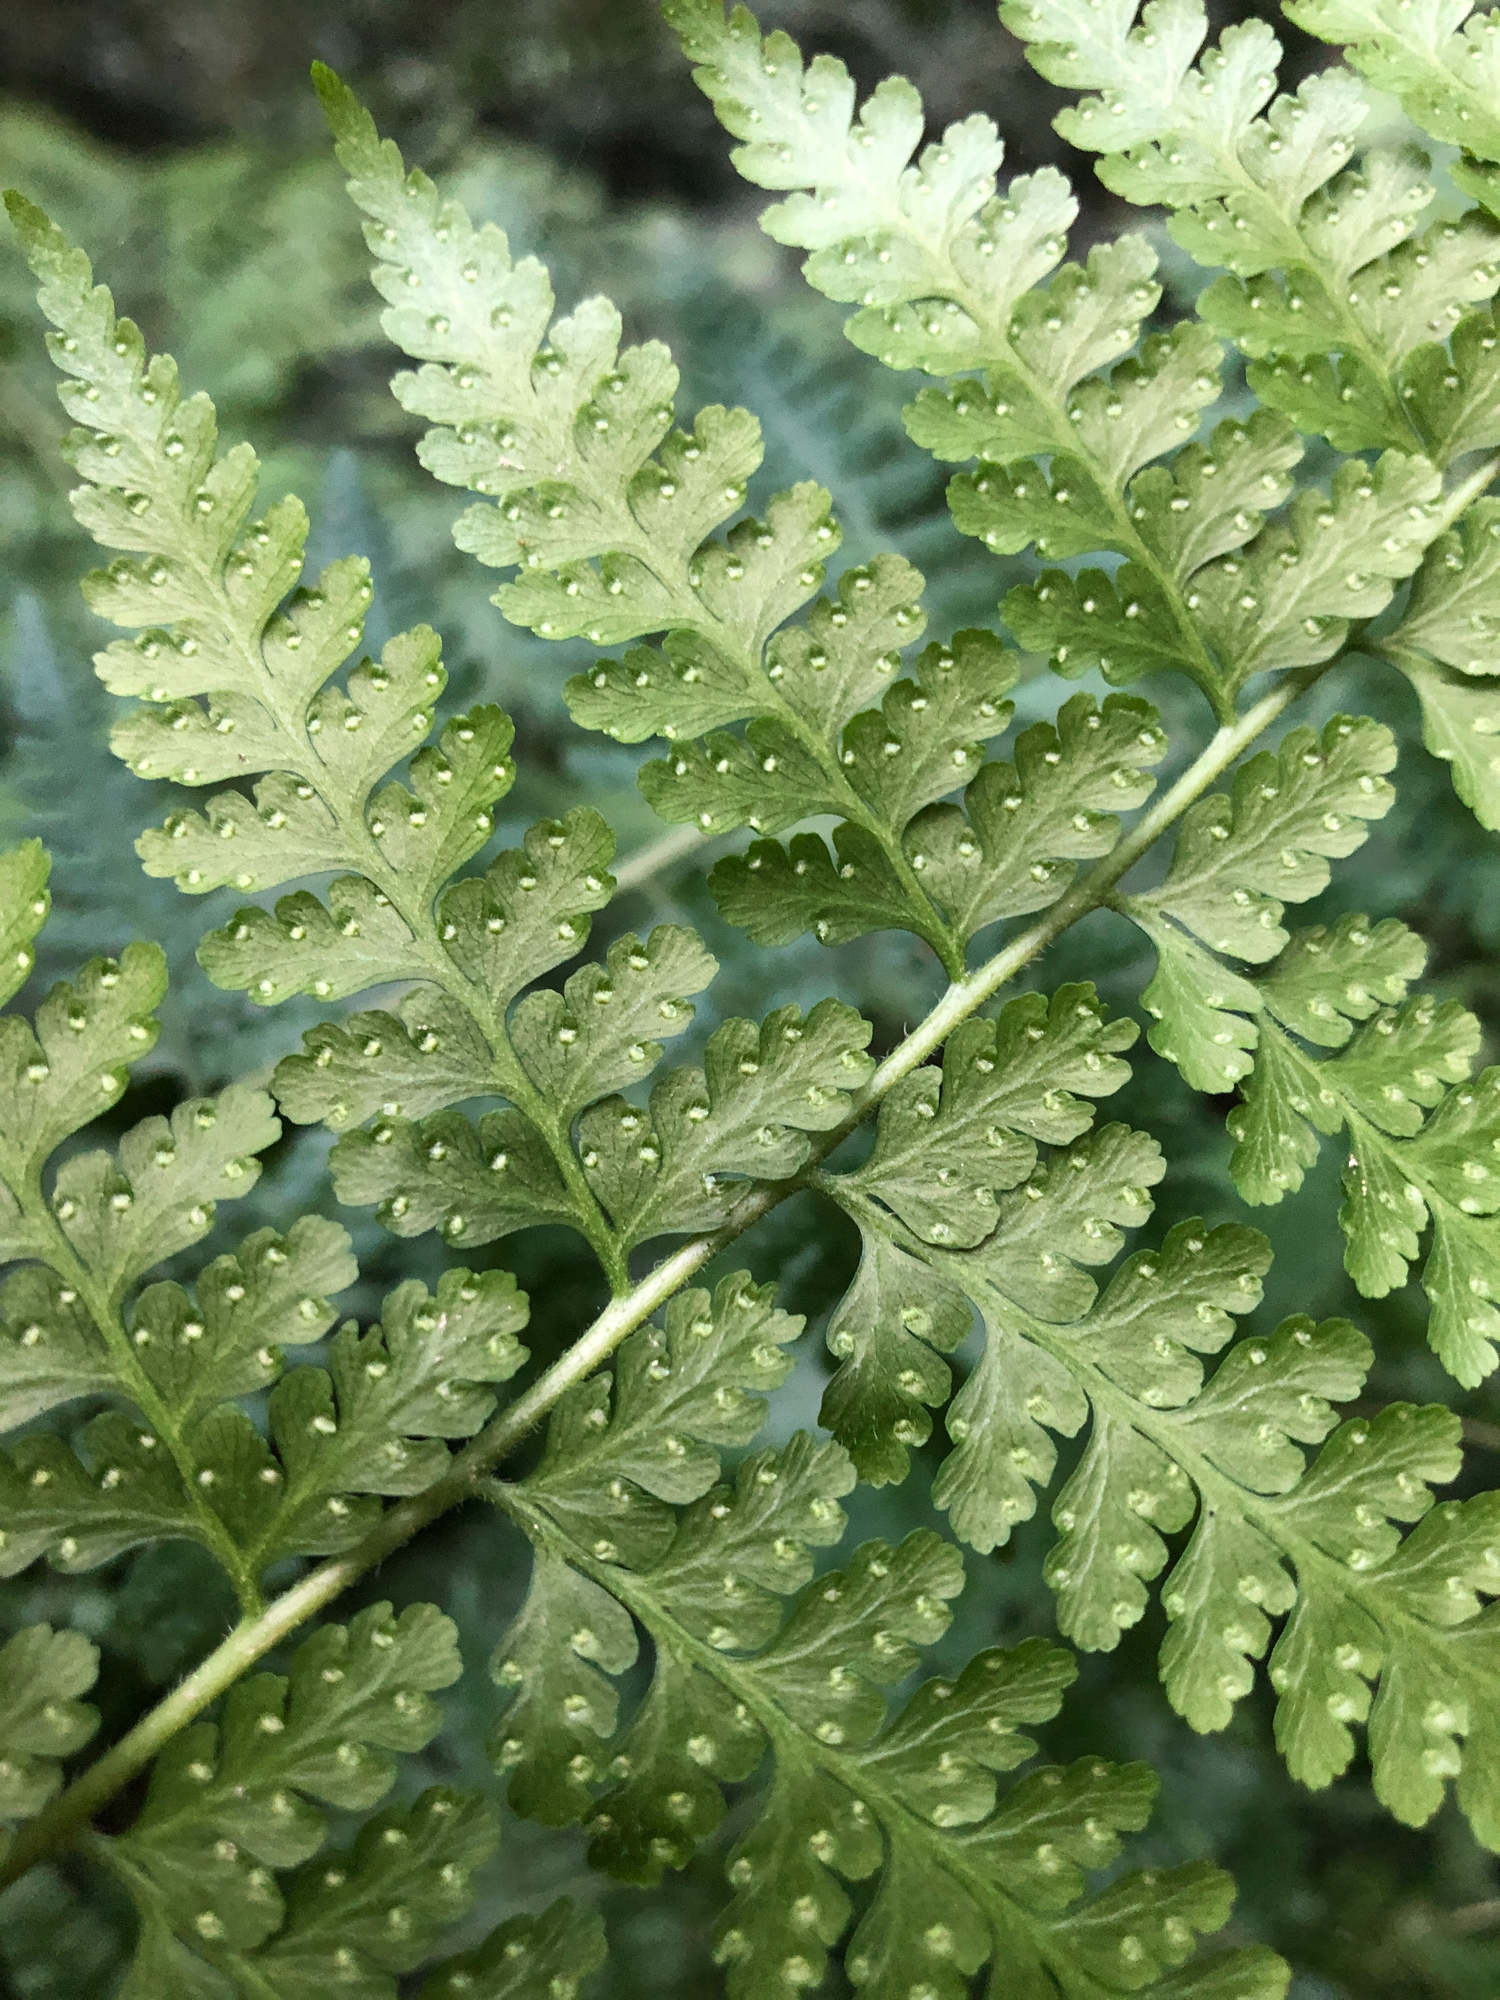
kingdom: Plantae
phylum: Tracheophyta
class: Polypodiopsida
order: Polypodiales
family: Dennstaedtiaceae
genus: Microlepia
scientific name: Microlepia speluncae
